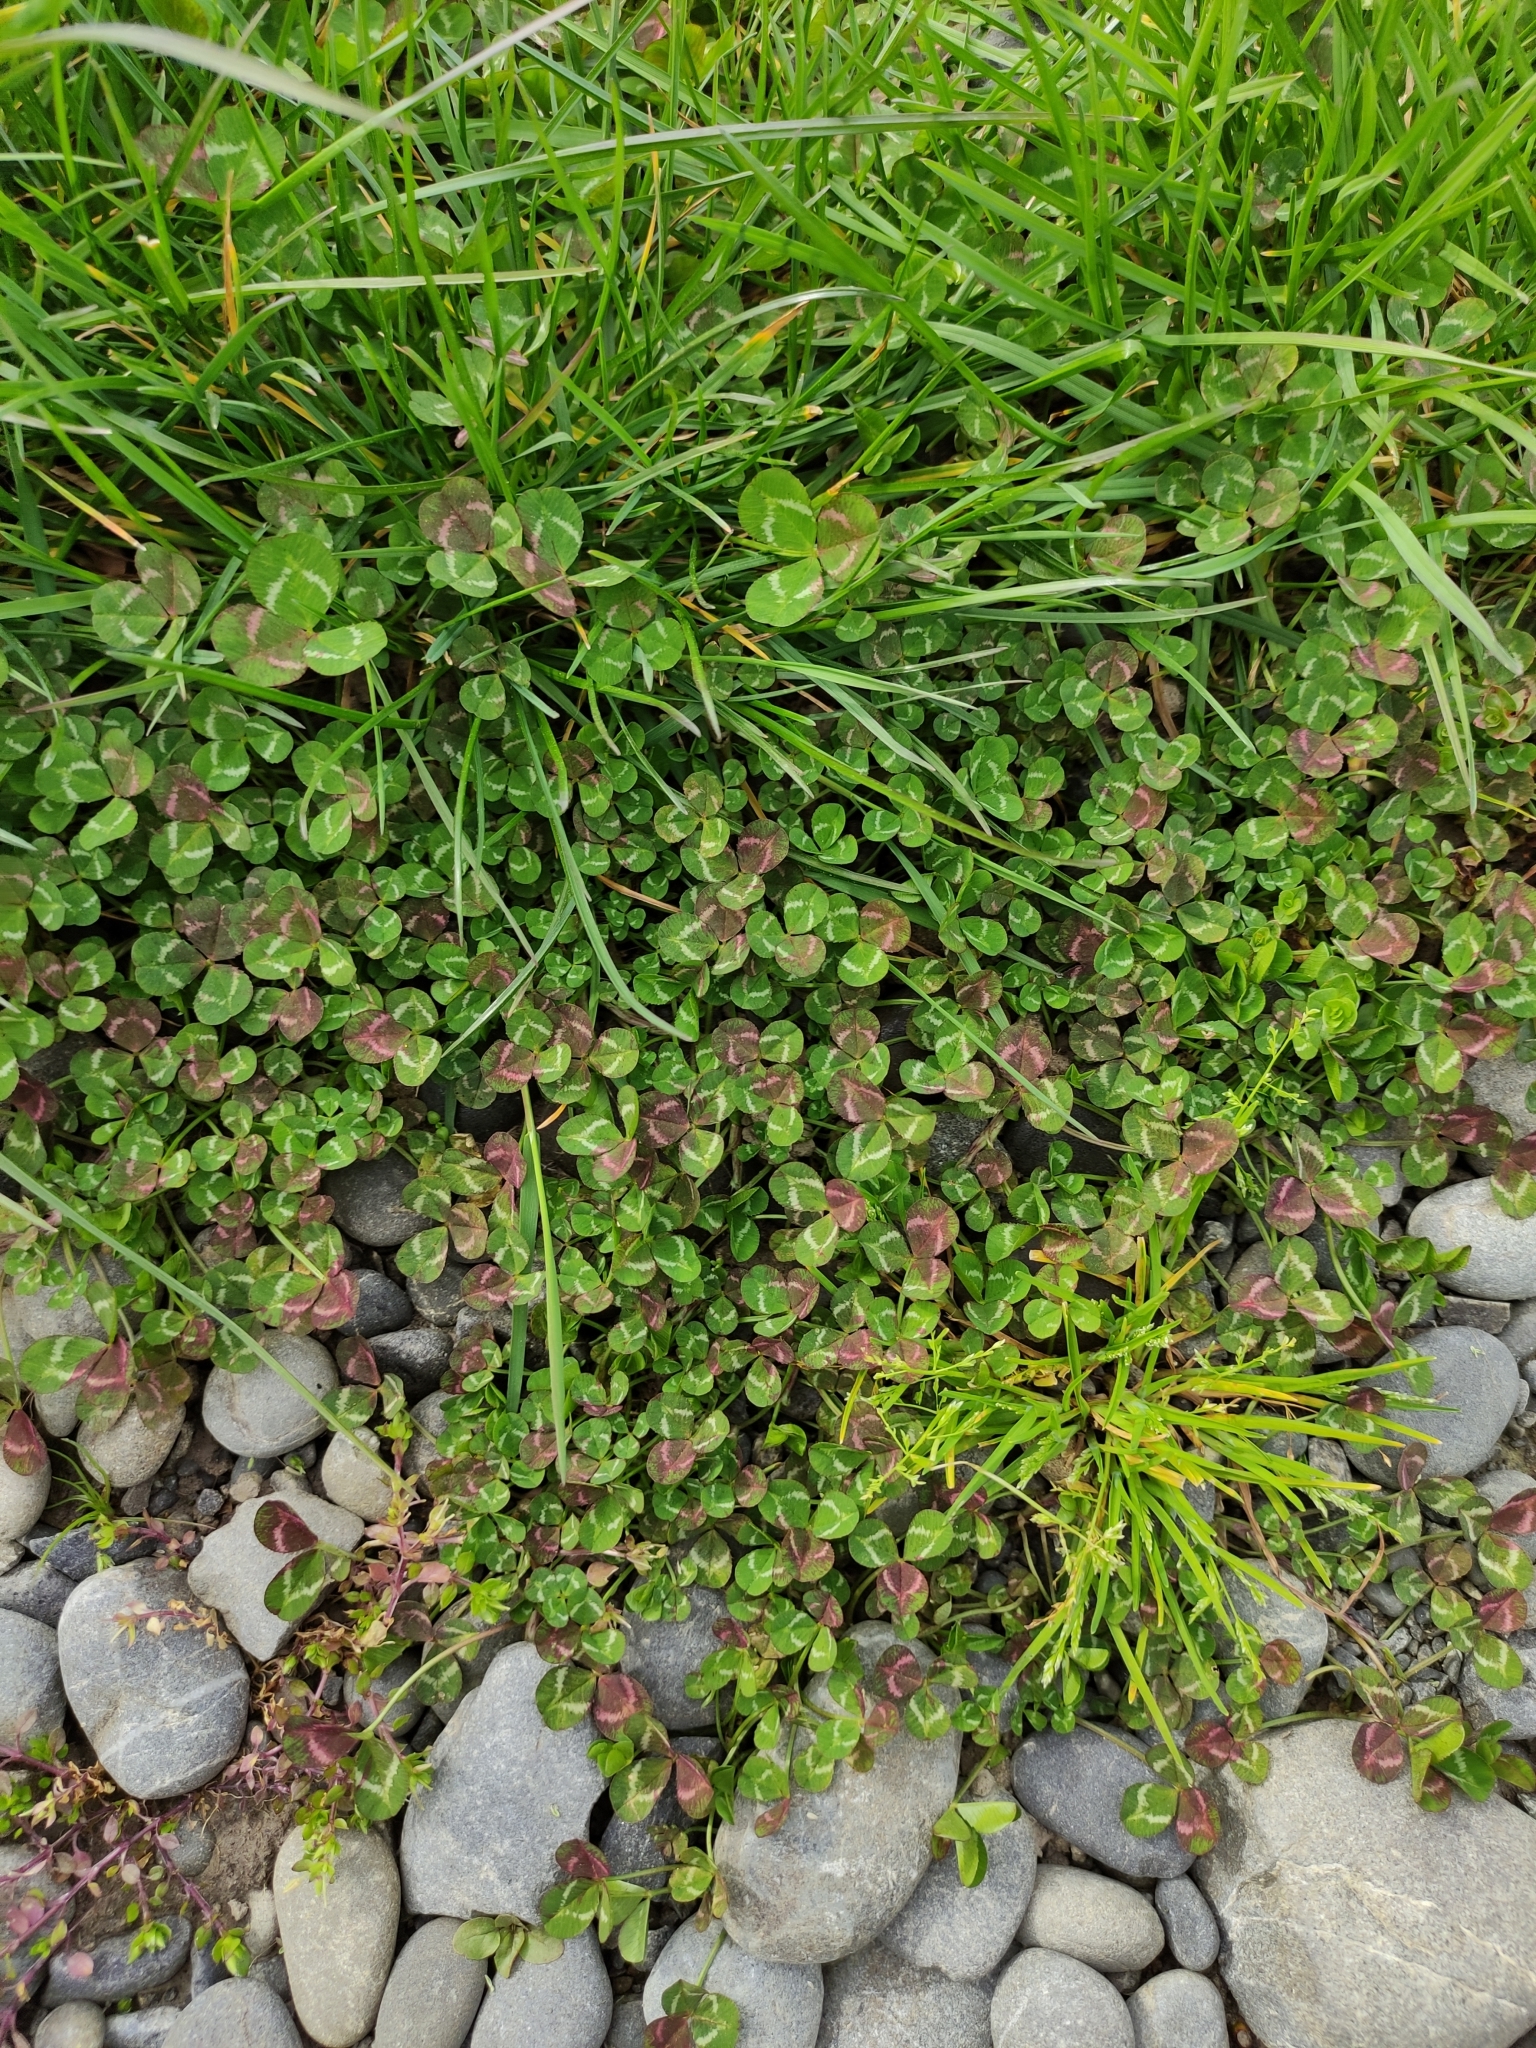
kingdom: Plantae
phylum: Tracheophyta
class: Magnoliopsida
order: Fabales
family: Fabaceae
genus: Trifolium
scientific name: Trifolium repens
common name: White clover
